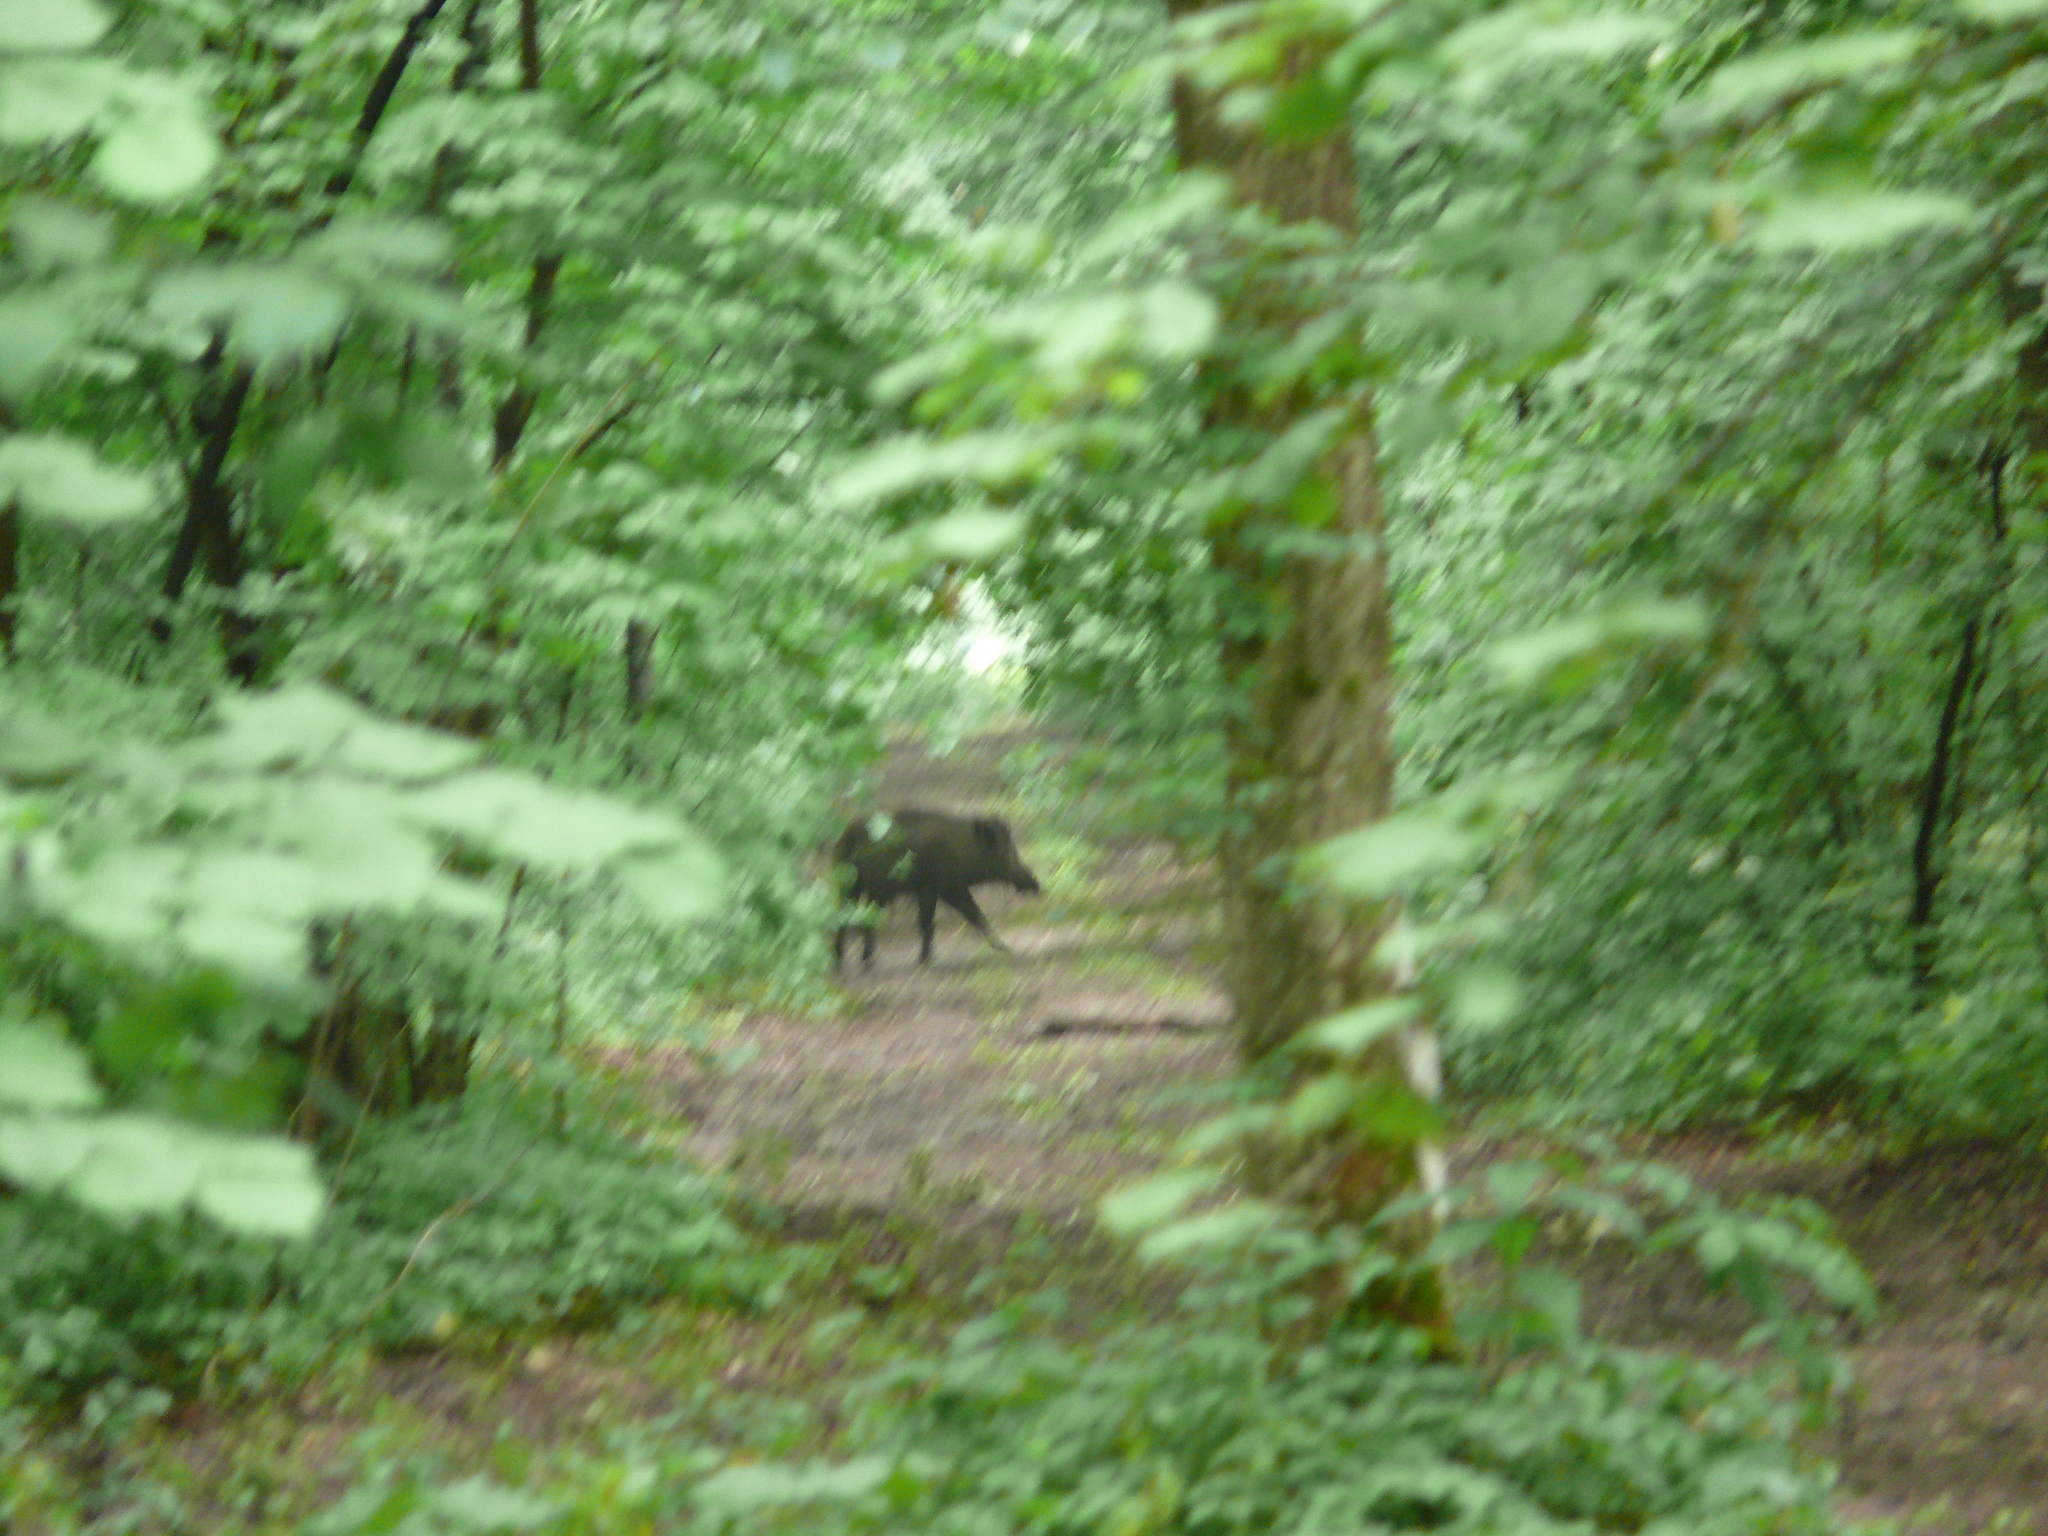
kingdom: Animalia
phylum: Chordata
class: Mammalia
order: Artiodactyla
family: Suidae
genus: Sus
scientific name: Sus scrofa
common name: Wild boar
